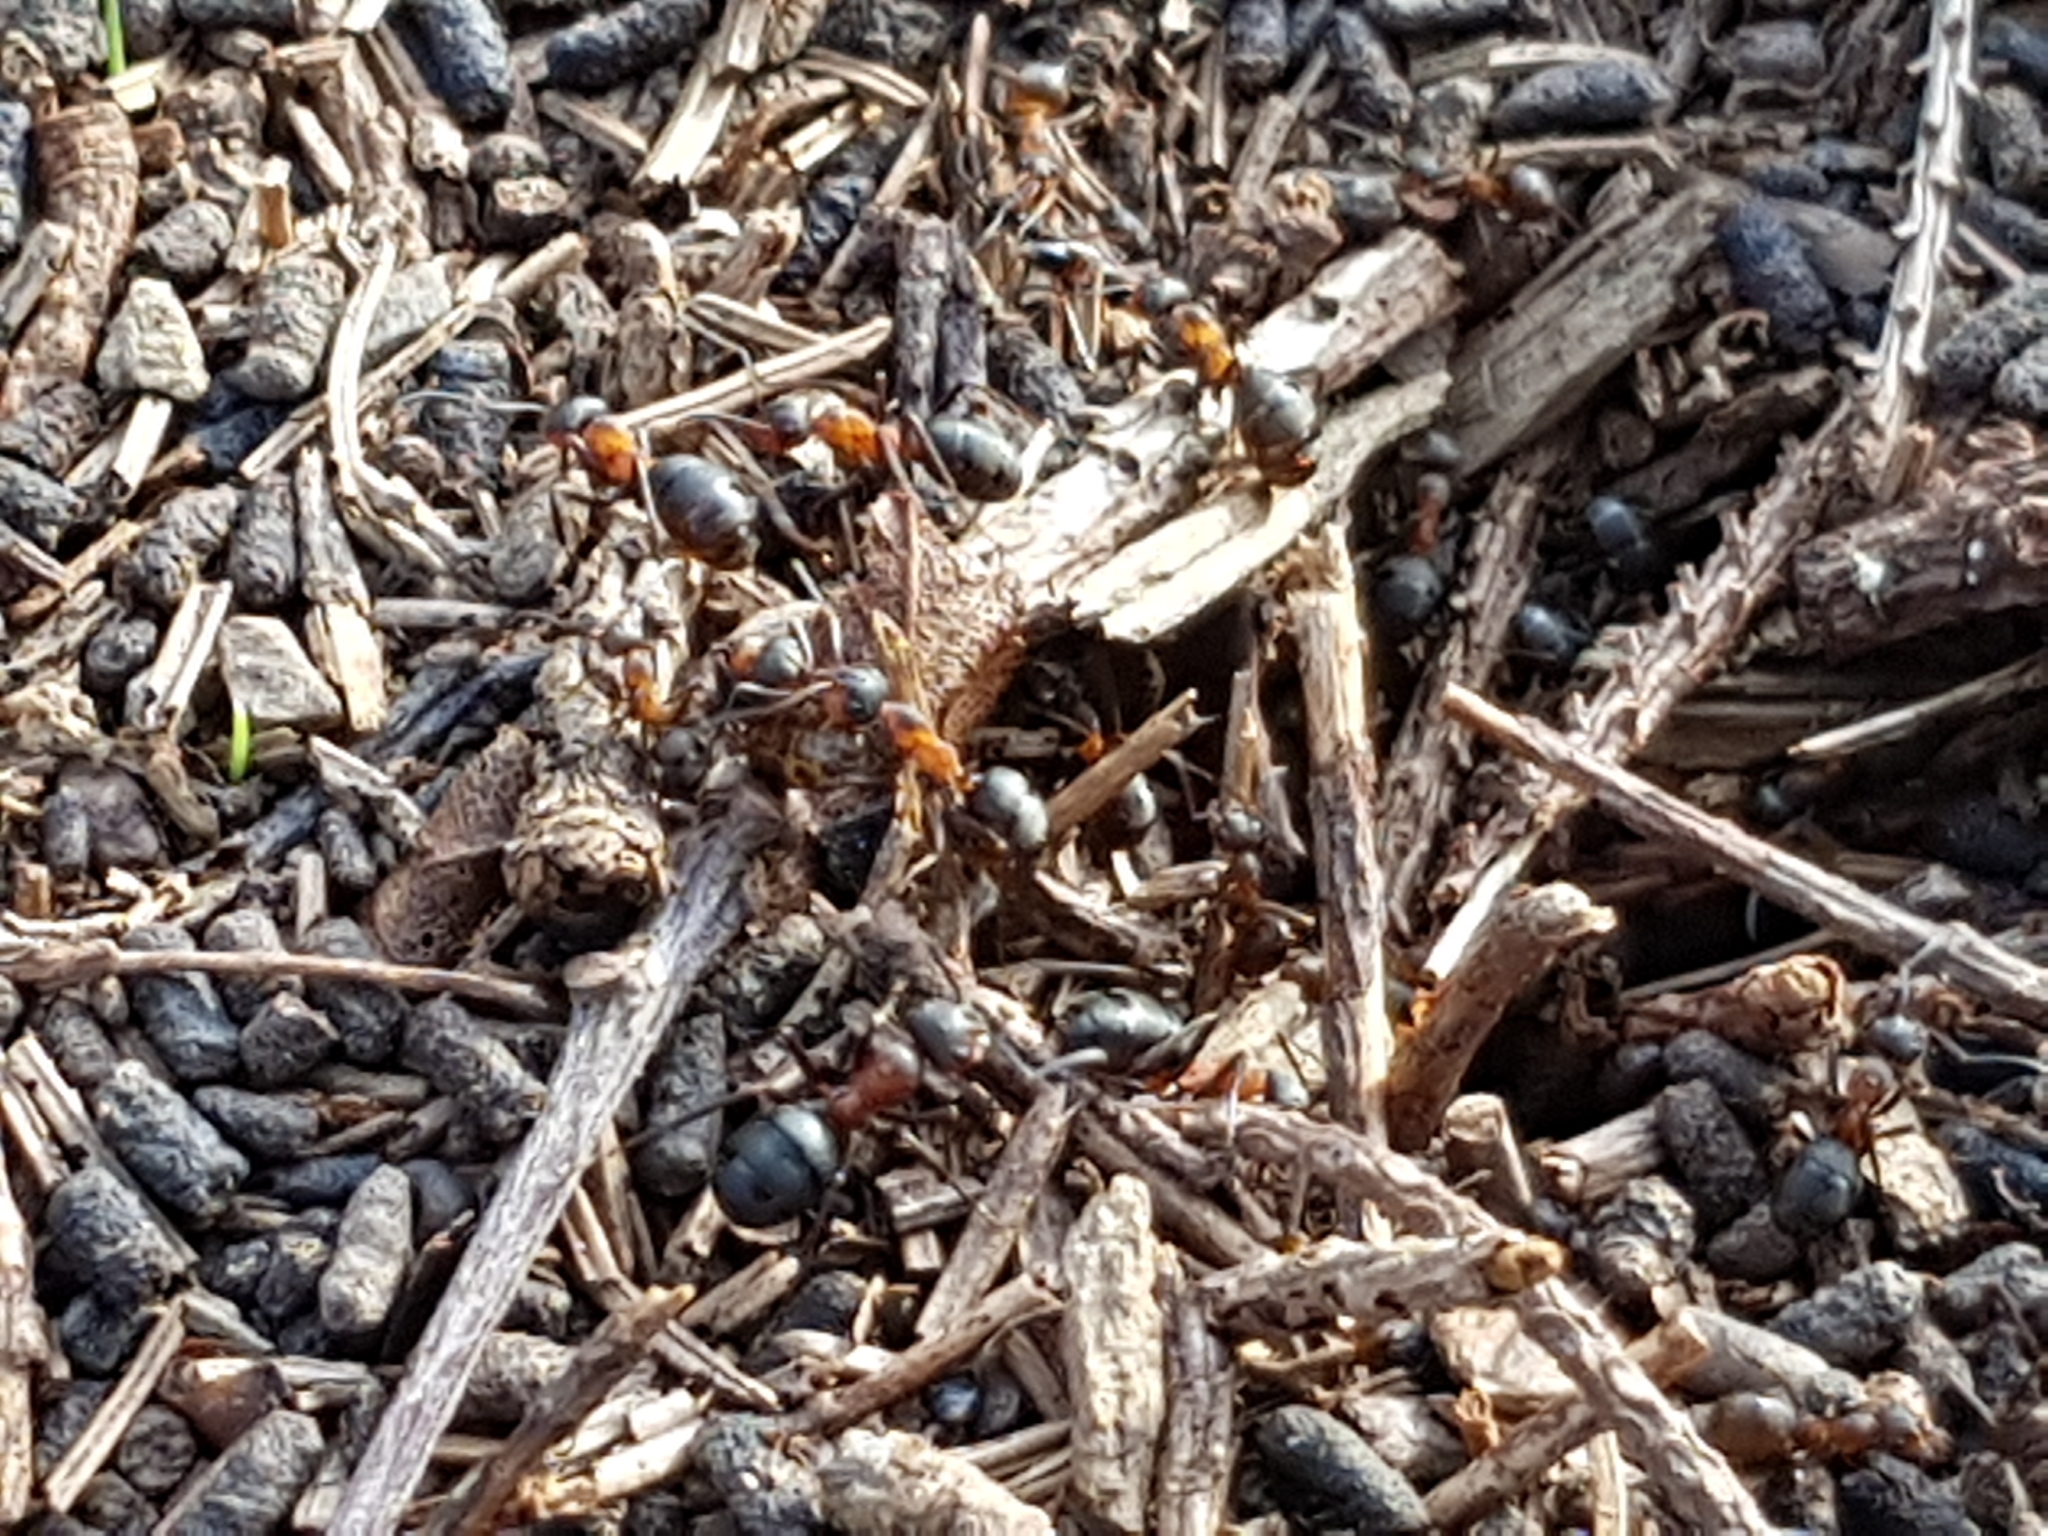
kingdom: Animalia
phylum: Arthropoda
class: Insecta
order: Hymenoptera
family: Formicidae
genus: Formica
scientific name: Formica
